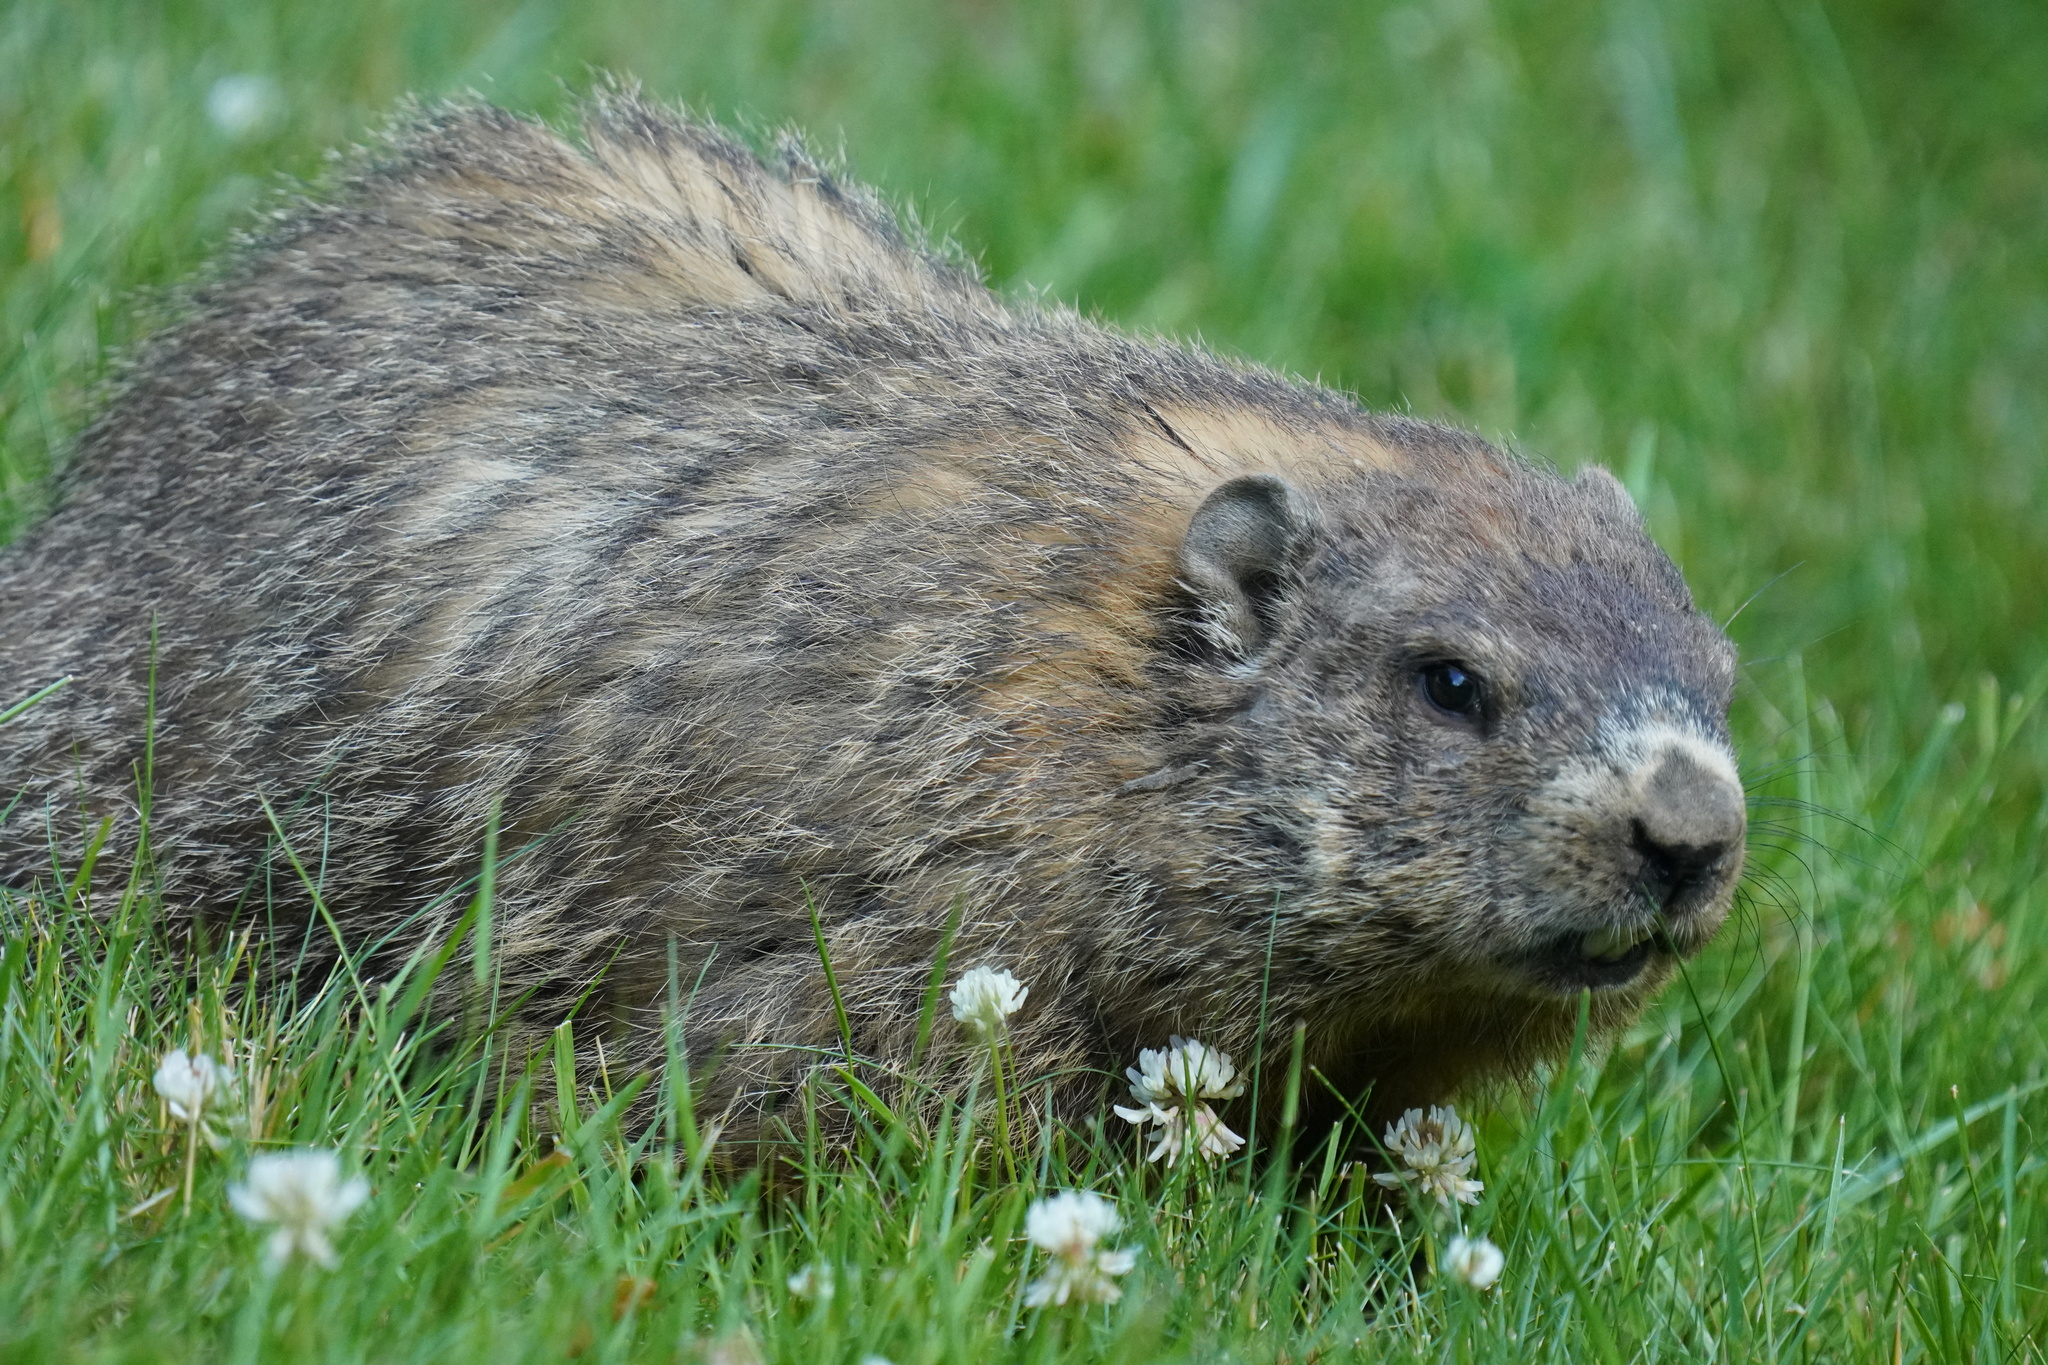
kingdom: Animalia
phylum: Chordata
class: Mammalia
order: Rodentia
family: Sciuridae
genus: Marmota
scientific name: Marmota monax
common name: Groundhog
